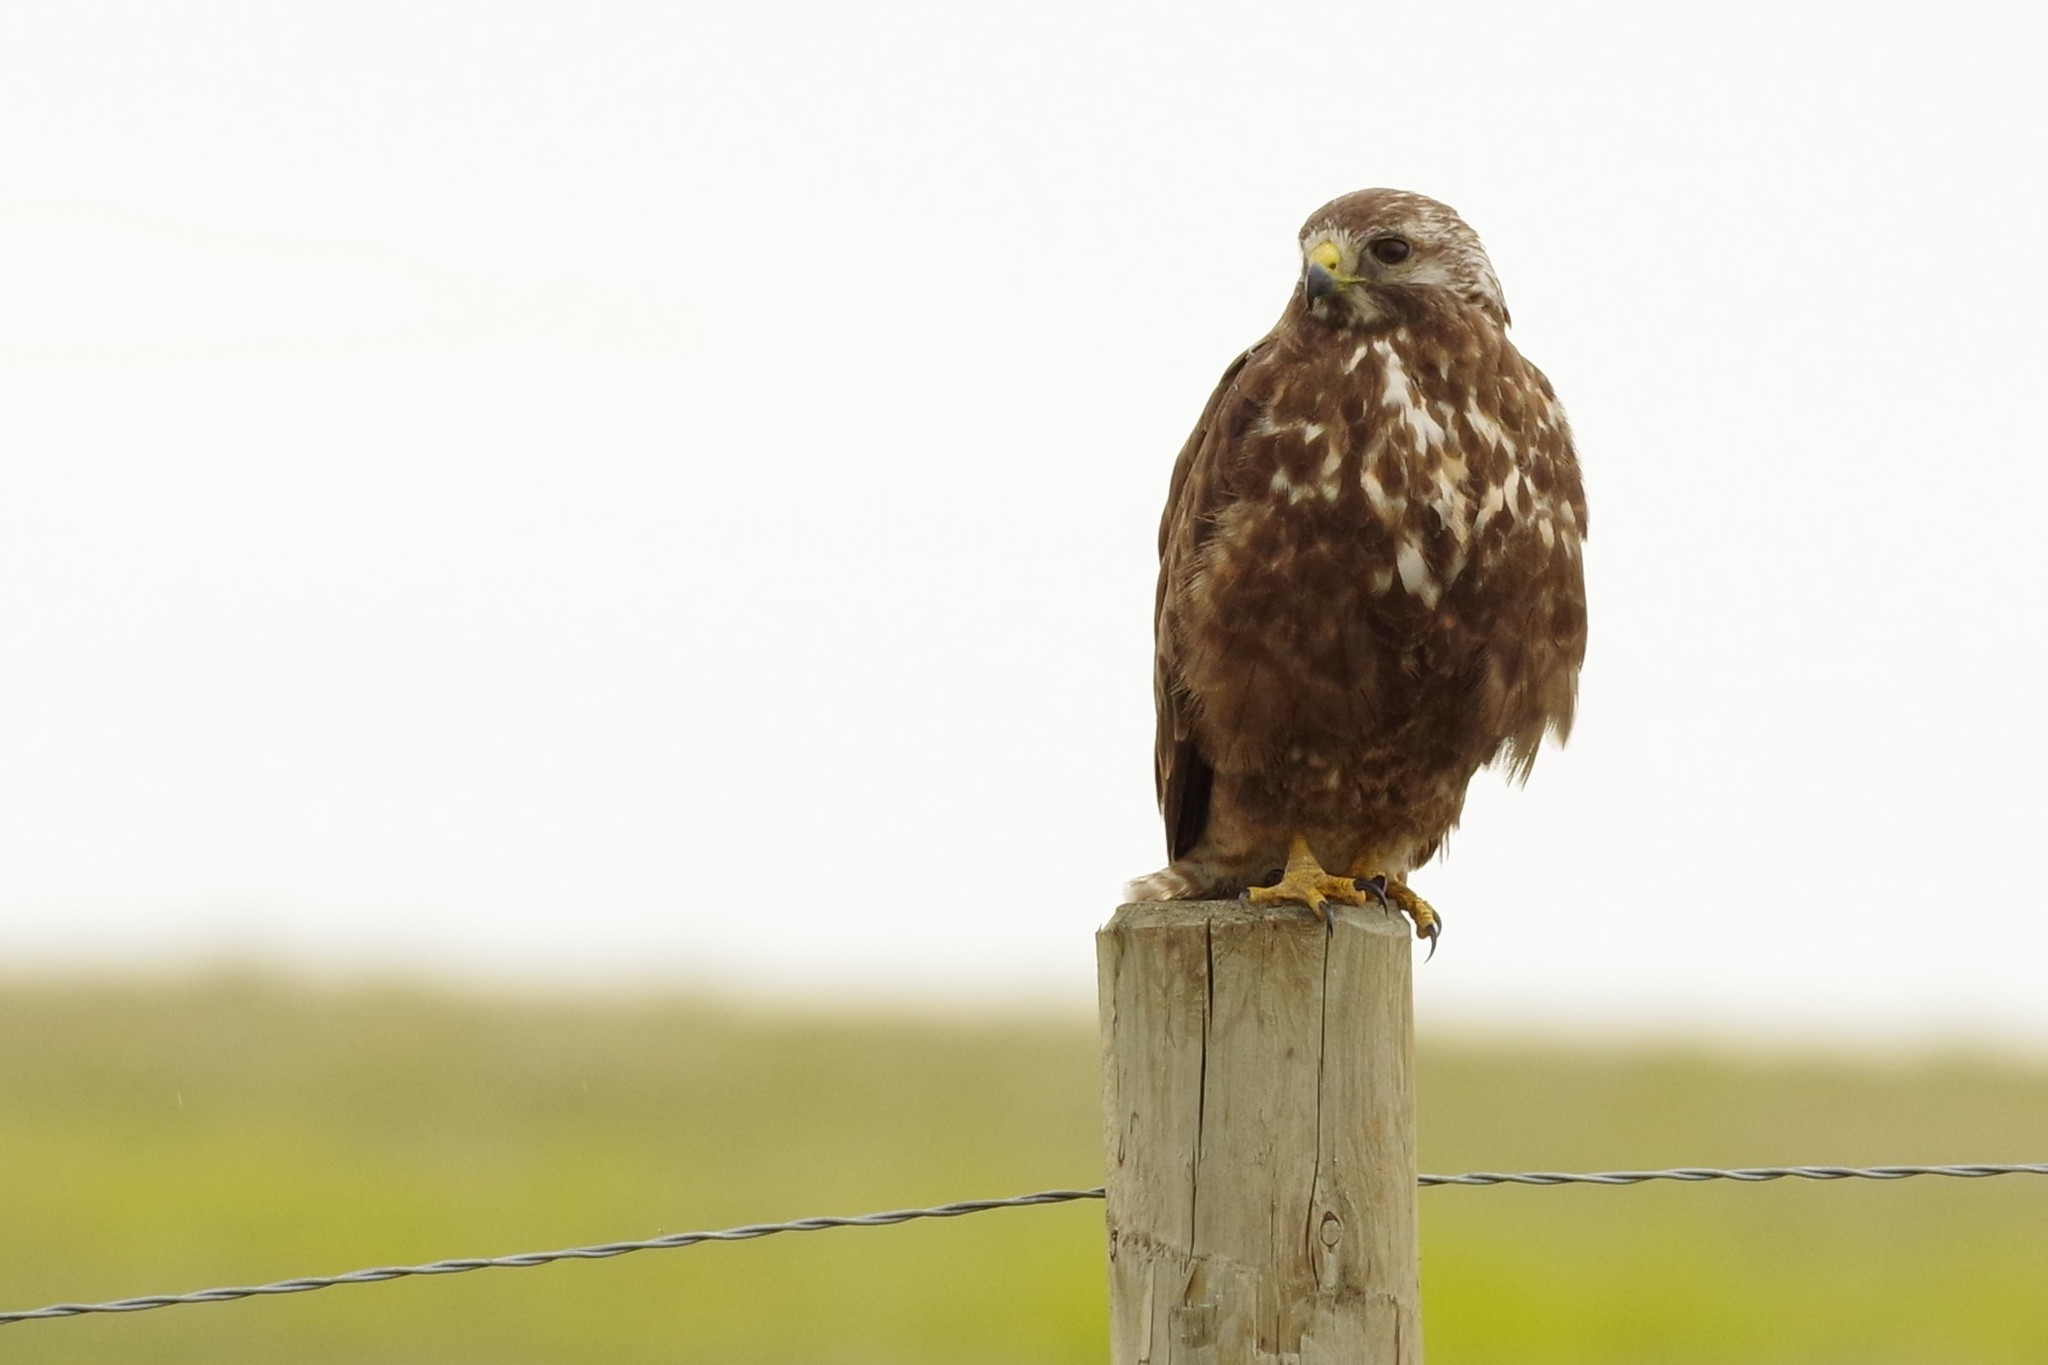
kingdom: Animalia
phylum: Chordata
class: Aves
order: Accipitriformes
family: Accipitridae
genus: Buteo
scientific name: Buteo swainsoni
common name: Swainson's hawk
